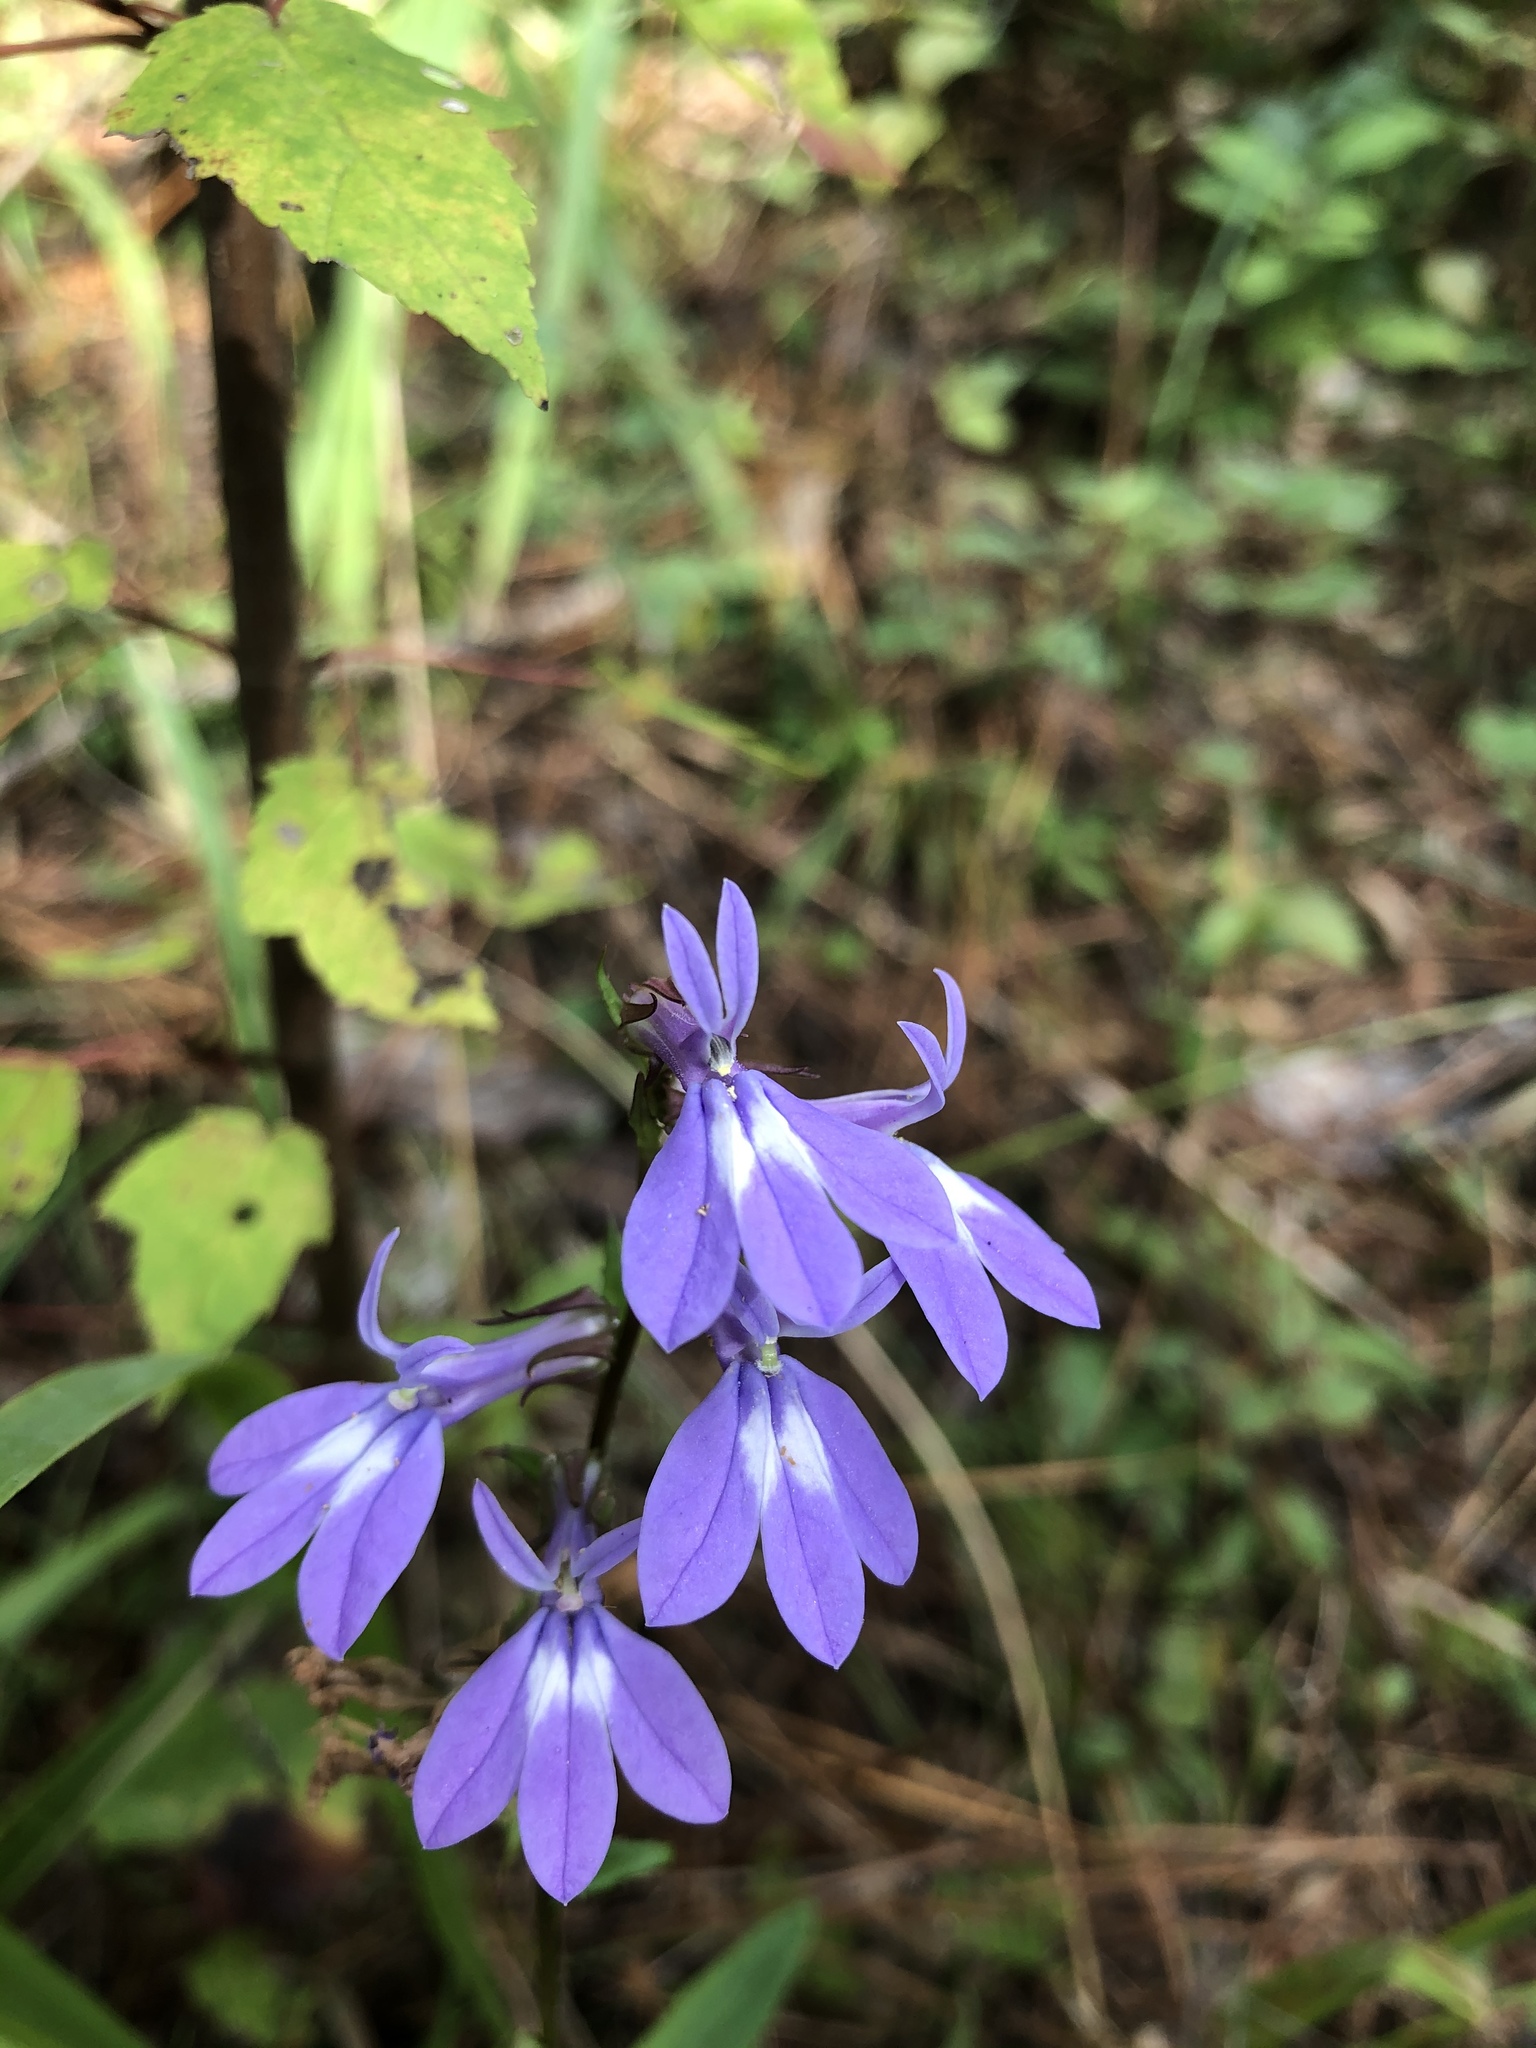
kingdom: Plantae
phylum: Tracheophyta
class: Magnoliopsida
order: Asterales
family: Campanulaceae
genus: Lobelia
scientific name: Lobelia puberula
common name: Purple dewdrop
